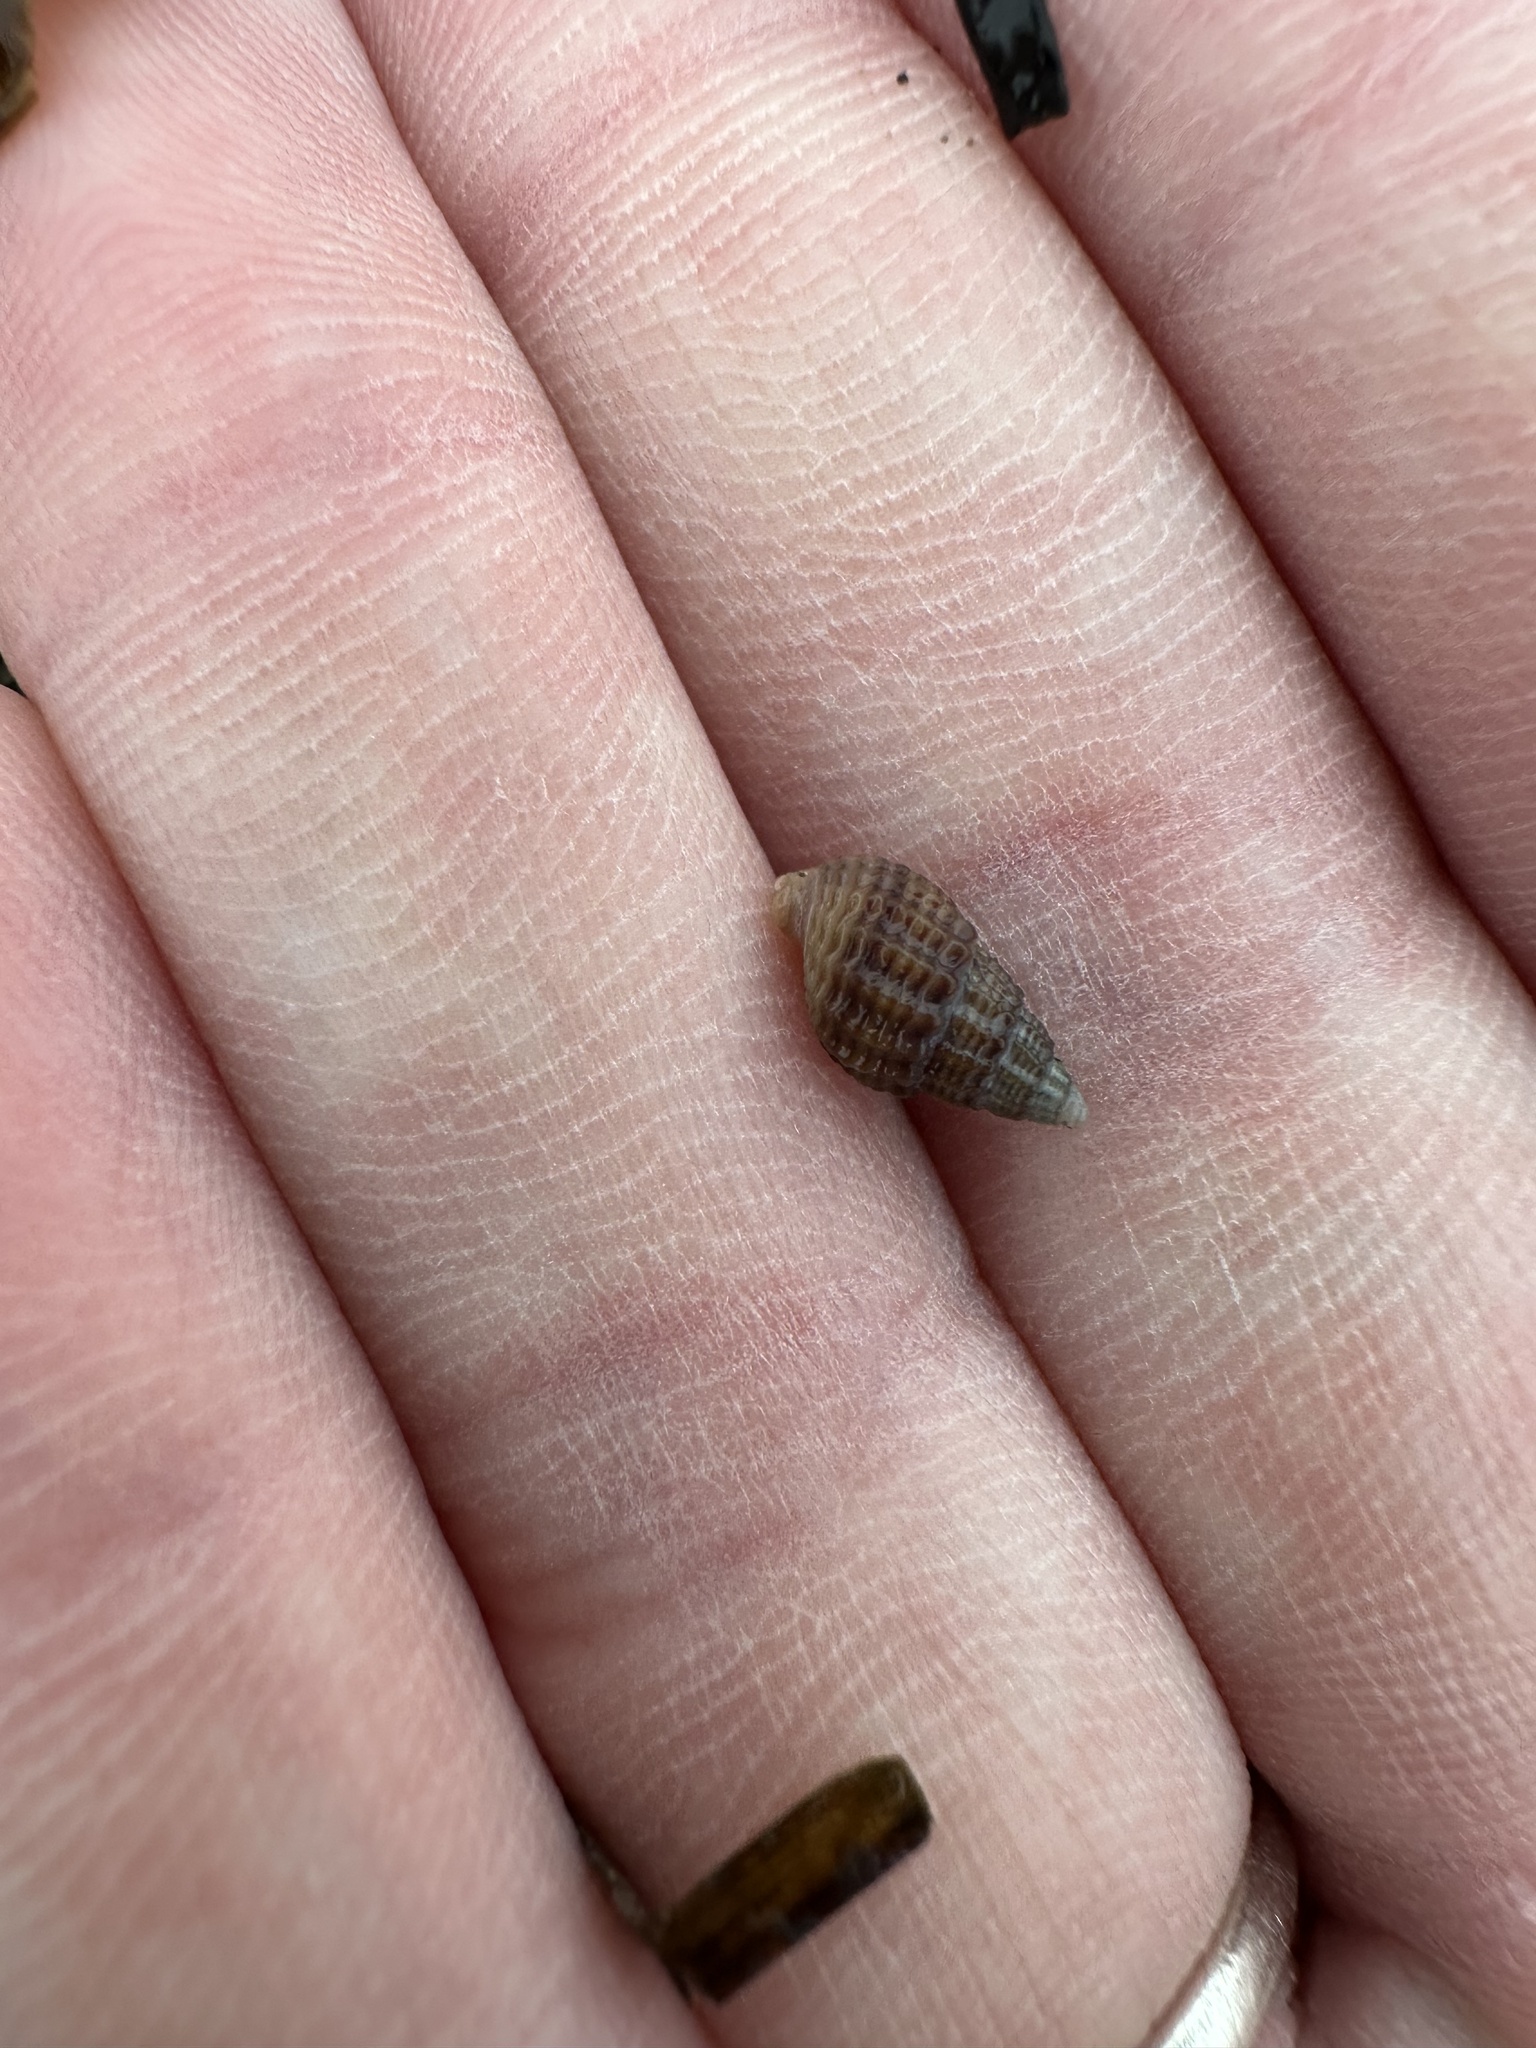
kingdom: Animalia
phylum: Mollusca
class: Gastropoda
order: Neogastropoda
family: Nassariidae
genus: Ilyanassa
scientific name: Ilyanassa trivittata
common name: Three-line mudsnail
